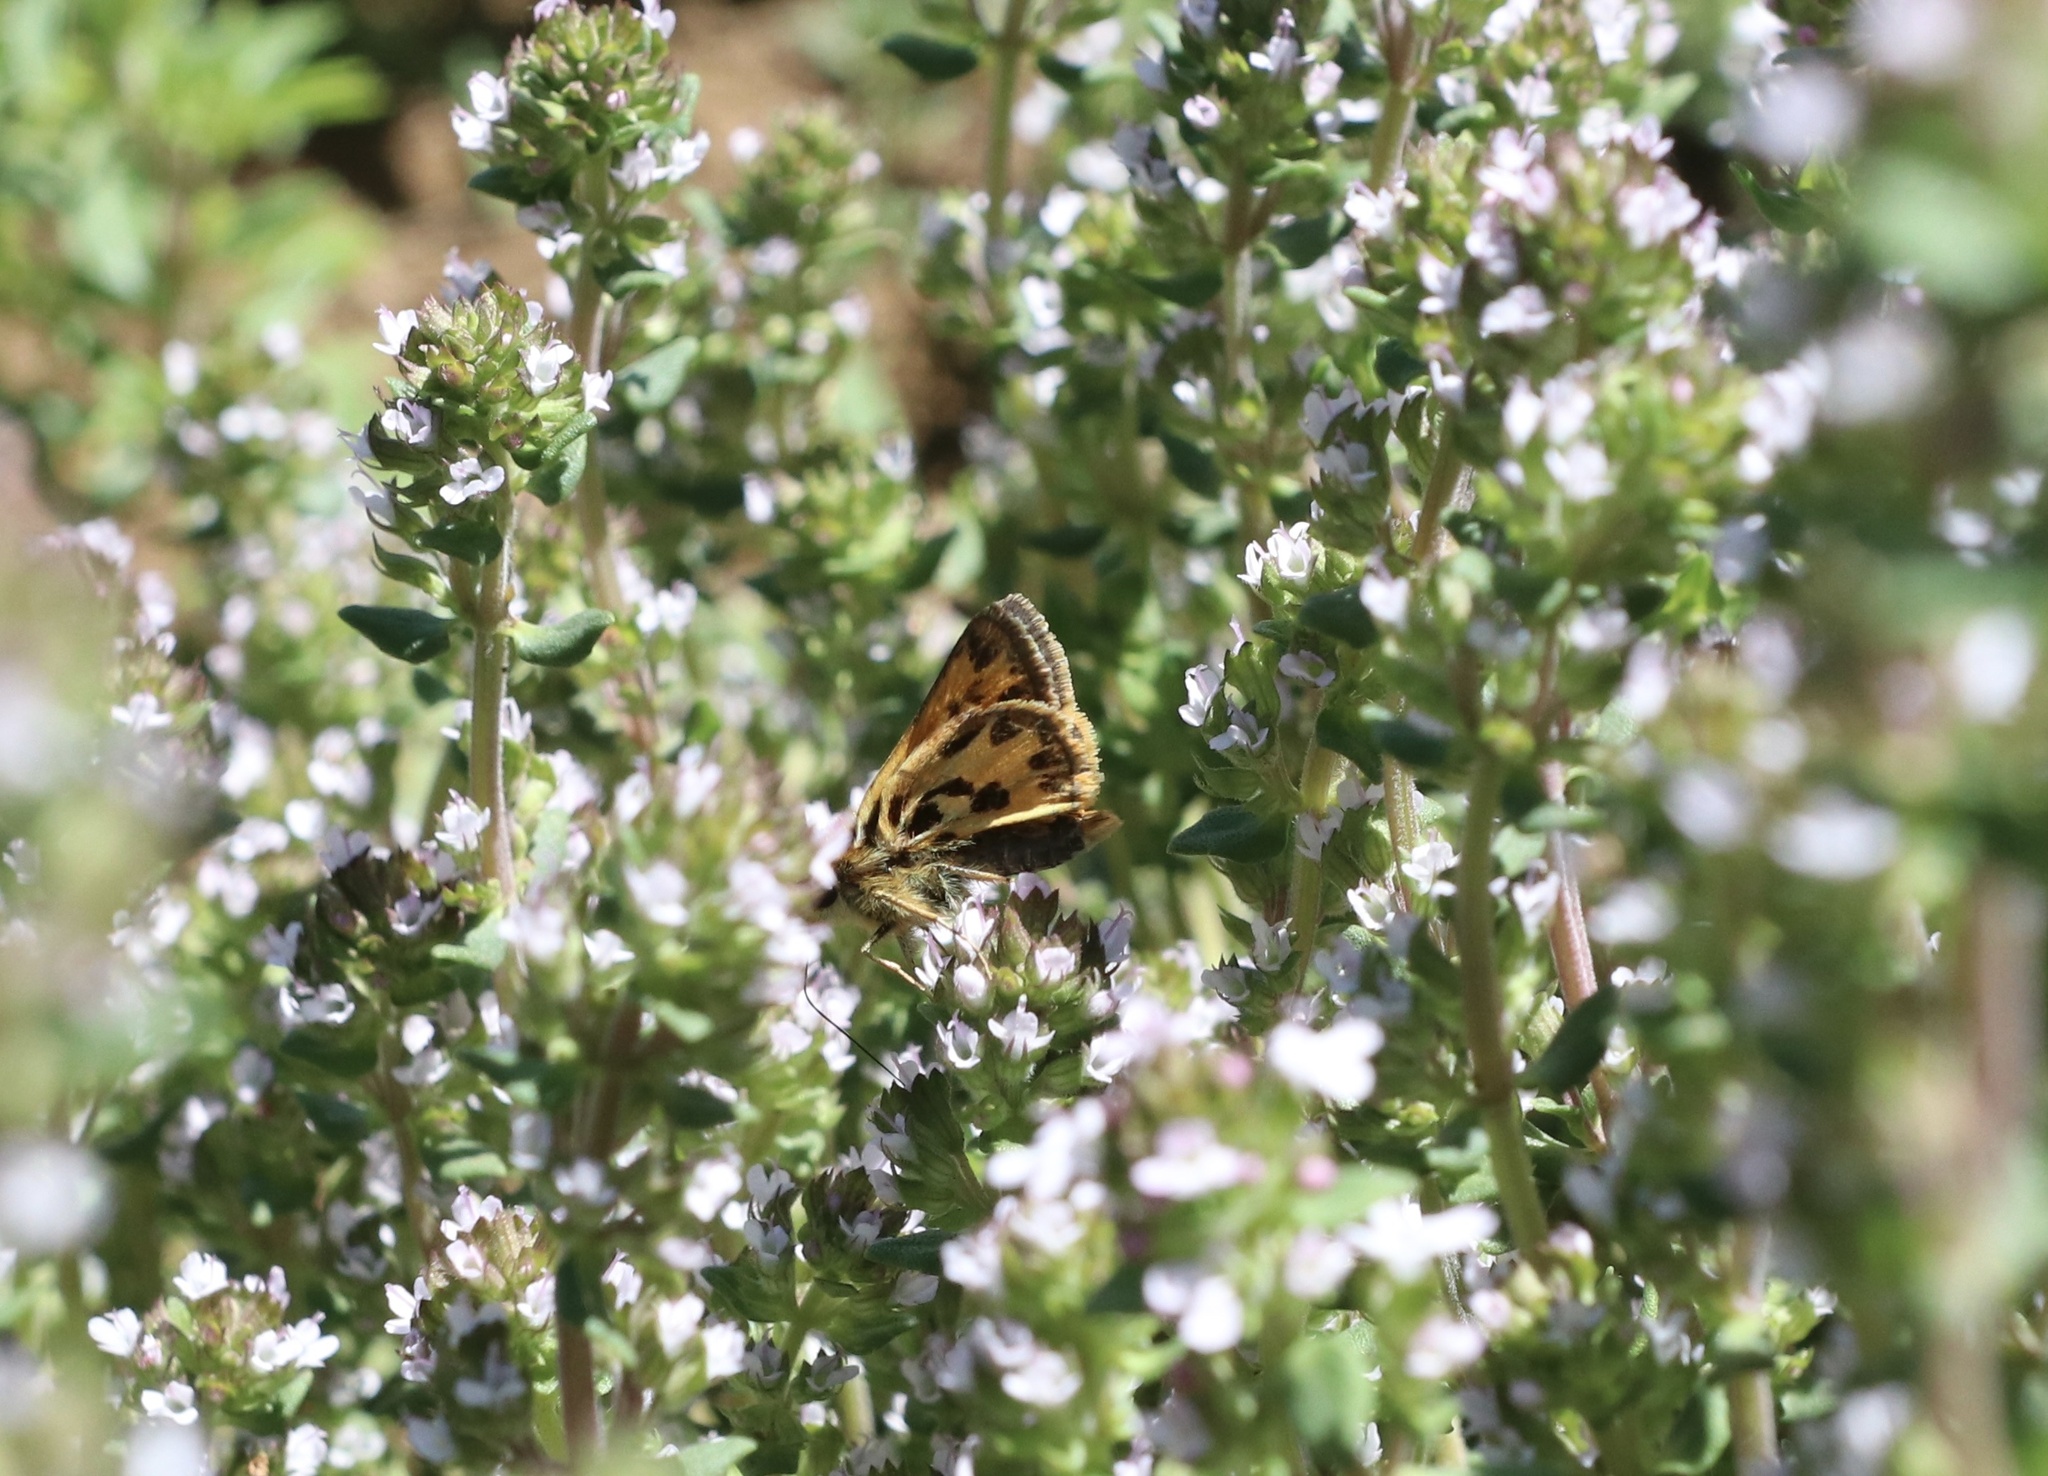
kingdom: Animalia
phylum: Arthropoda
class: Insecta
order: Lepidoptera
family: Hesperiidae
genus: Hylephila
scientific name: Hylephila fasciolata
